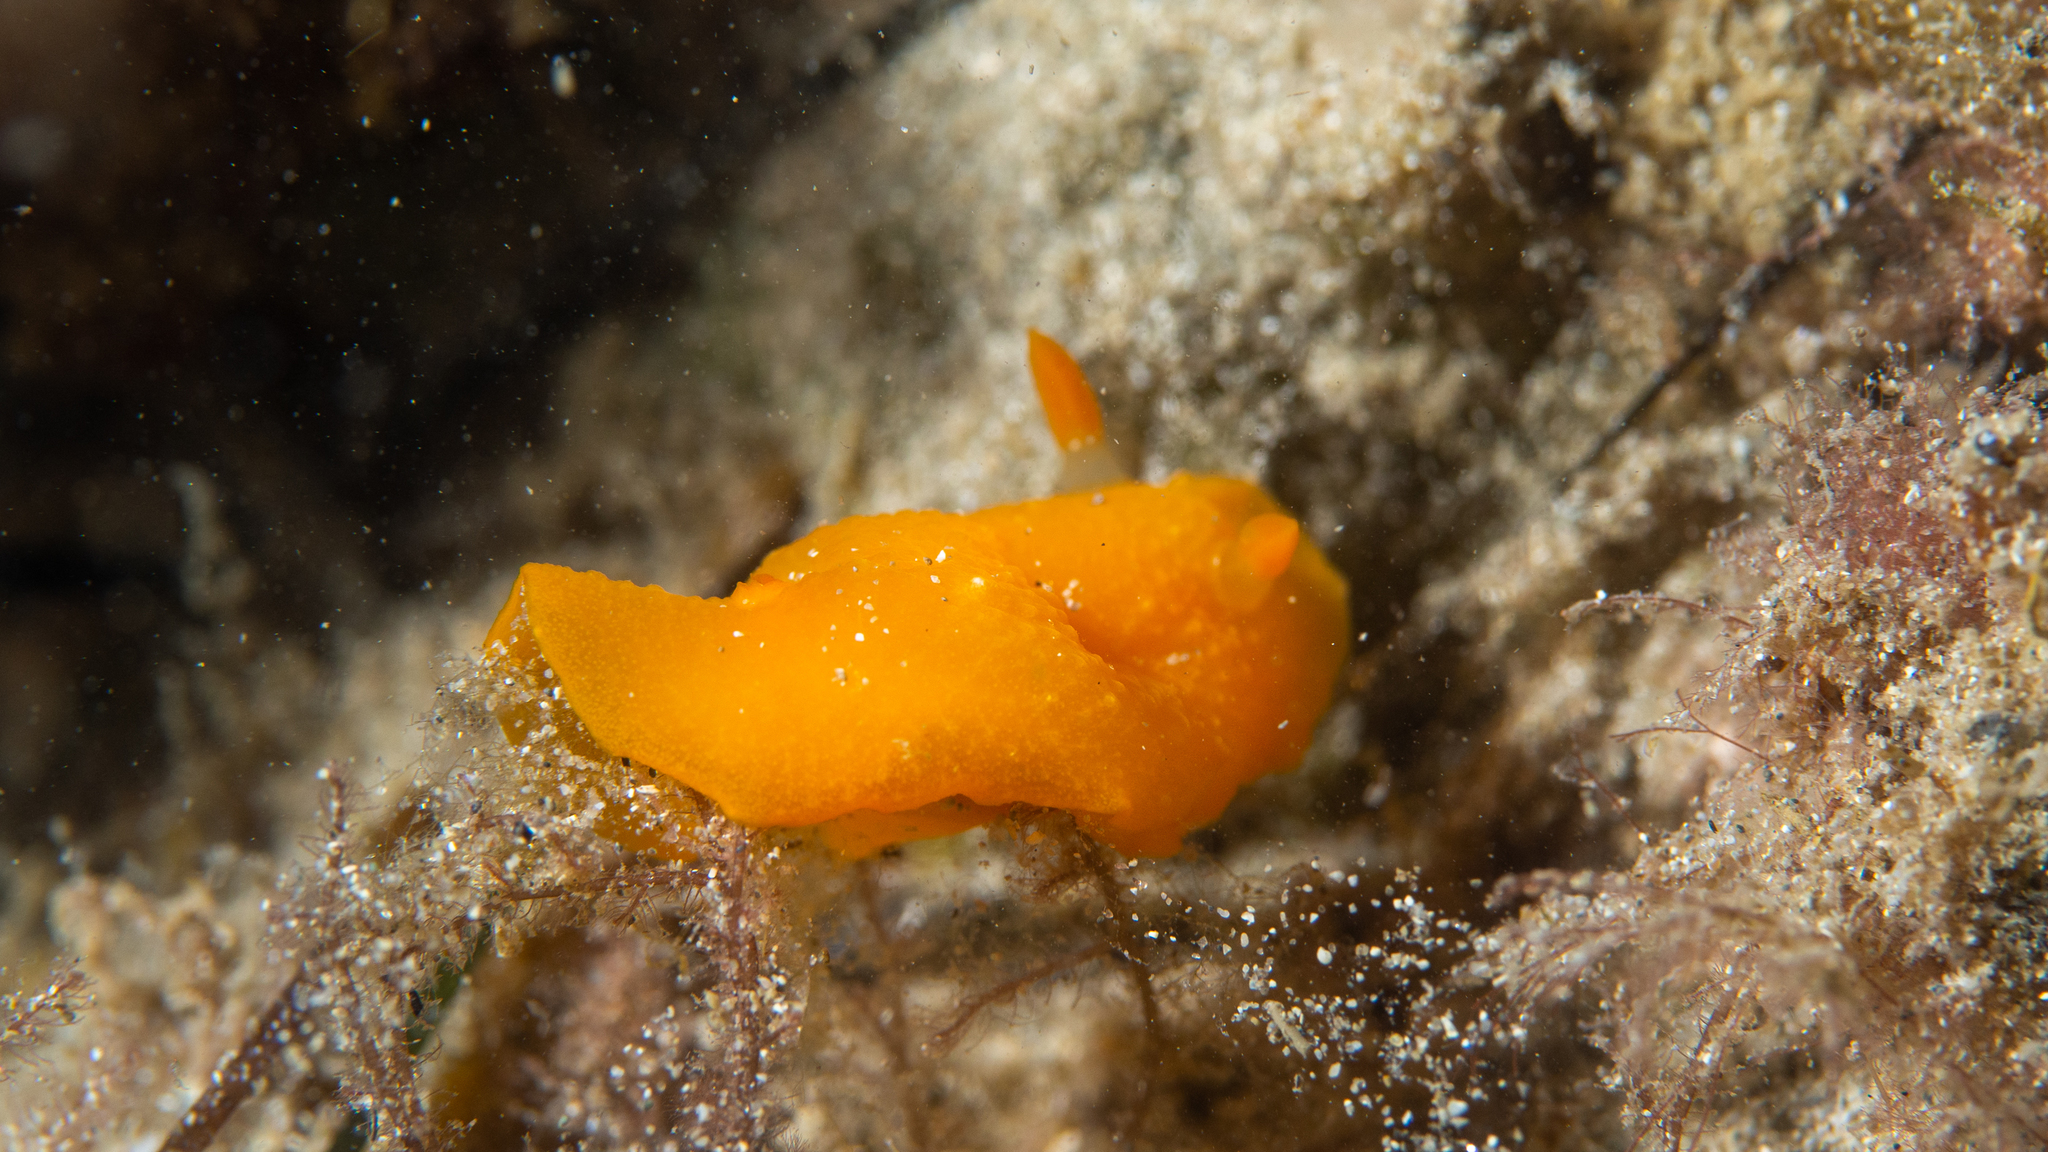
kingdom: Animalia
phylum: Mollusca
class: Gastropoda
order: Nudibranchia
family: Dendrodorididae
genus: Doriopsilla
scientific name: Doriopsilla carneola
